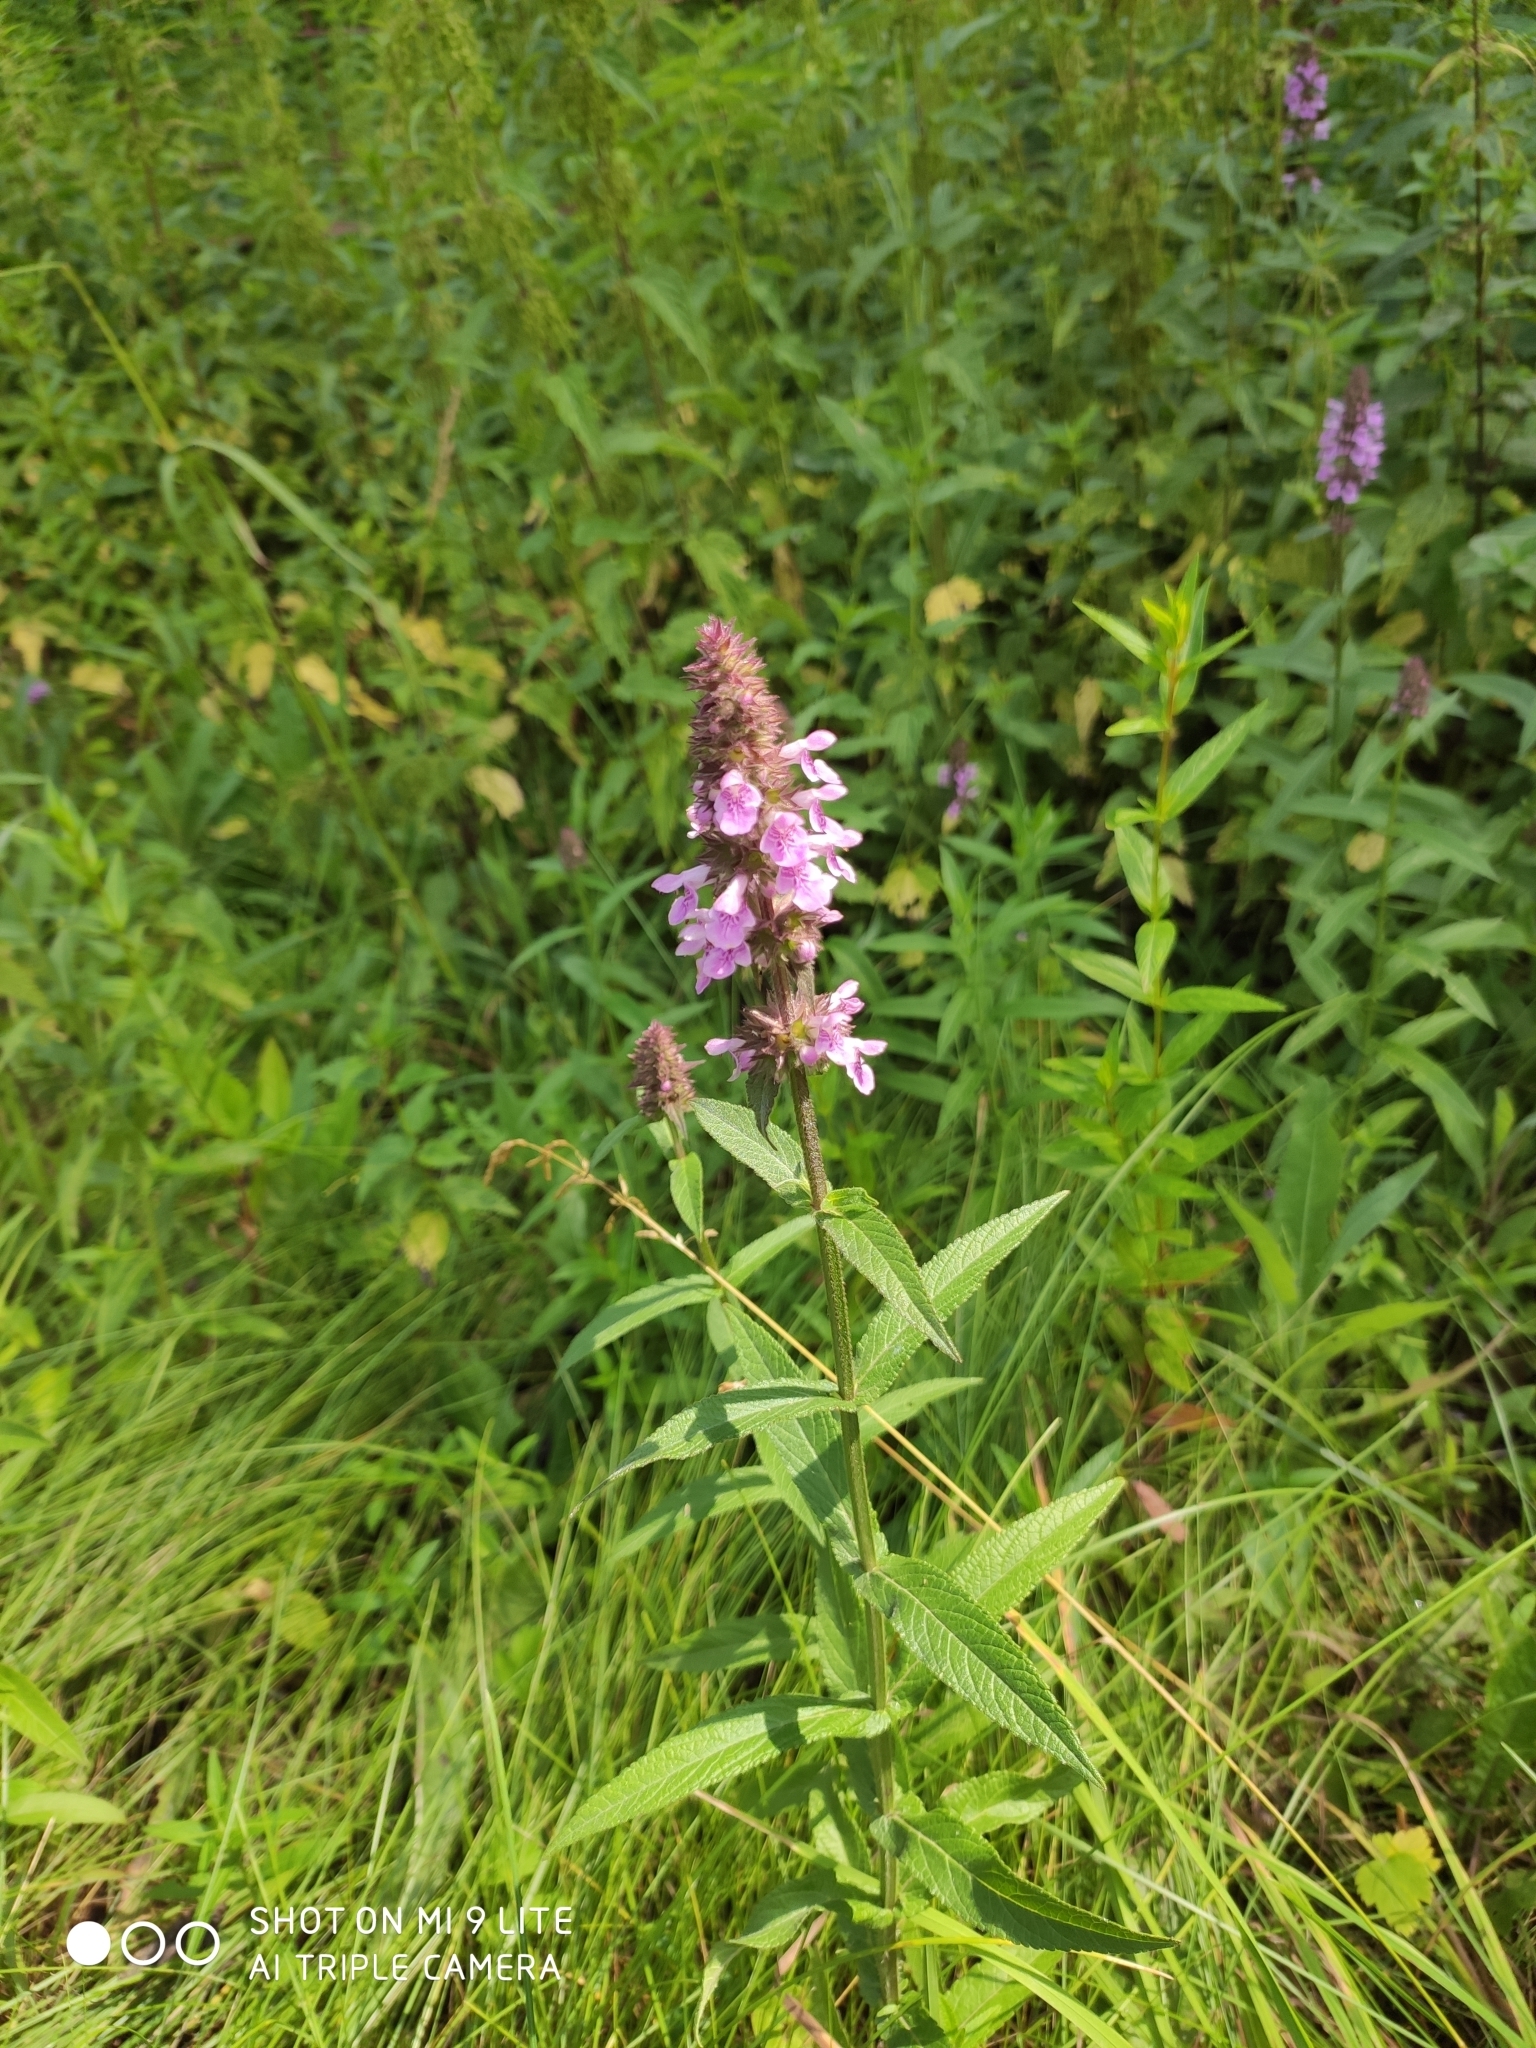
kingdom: Plantae
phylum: Tracheophyta
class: Magnoliopsida
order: Lamiales
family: Lamiaceae
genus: Stachys
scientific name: Stachys palustris
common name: Marsh woundwort
